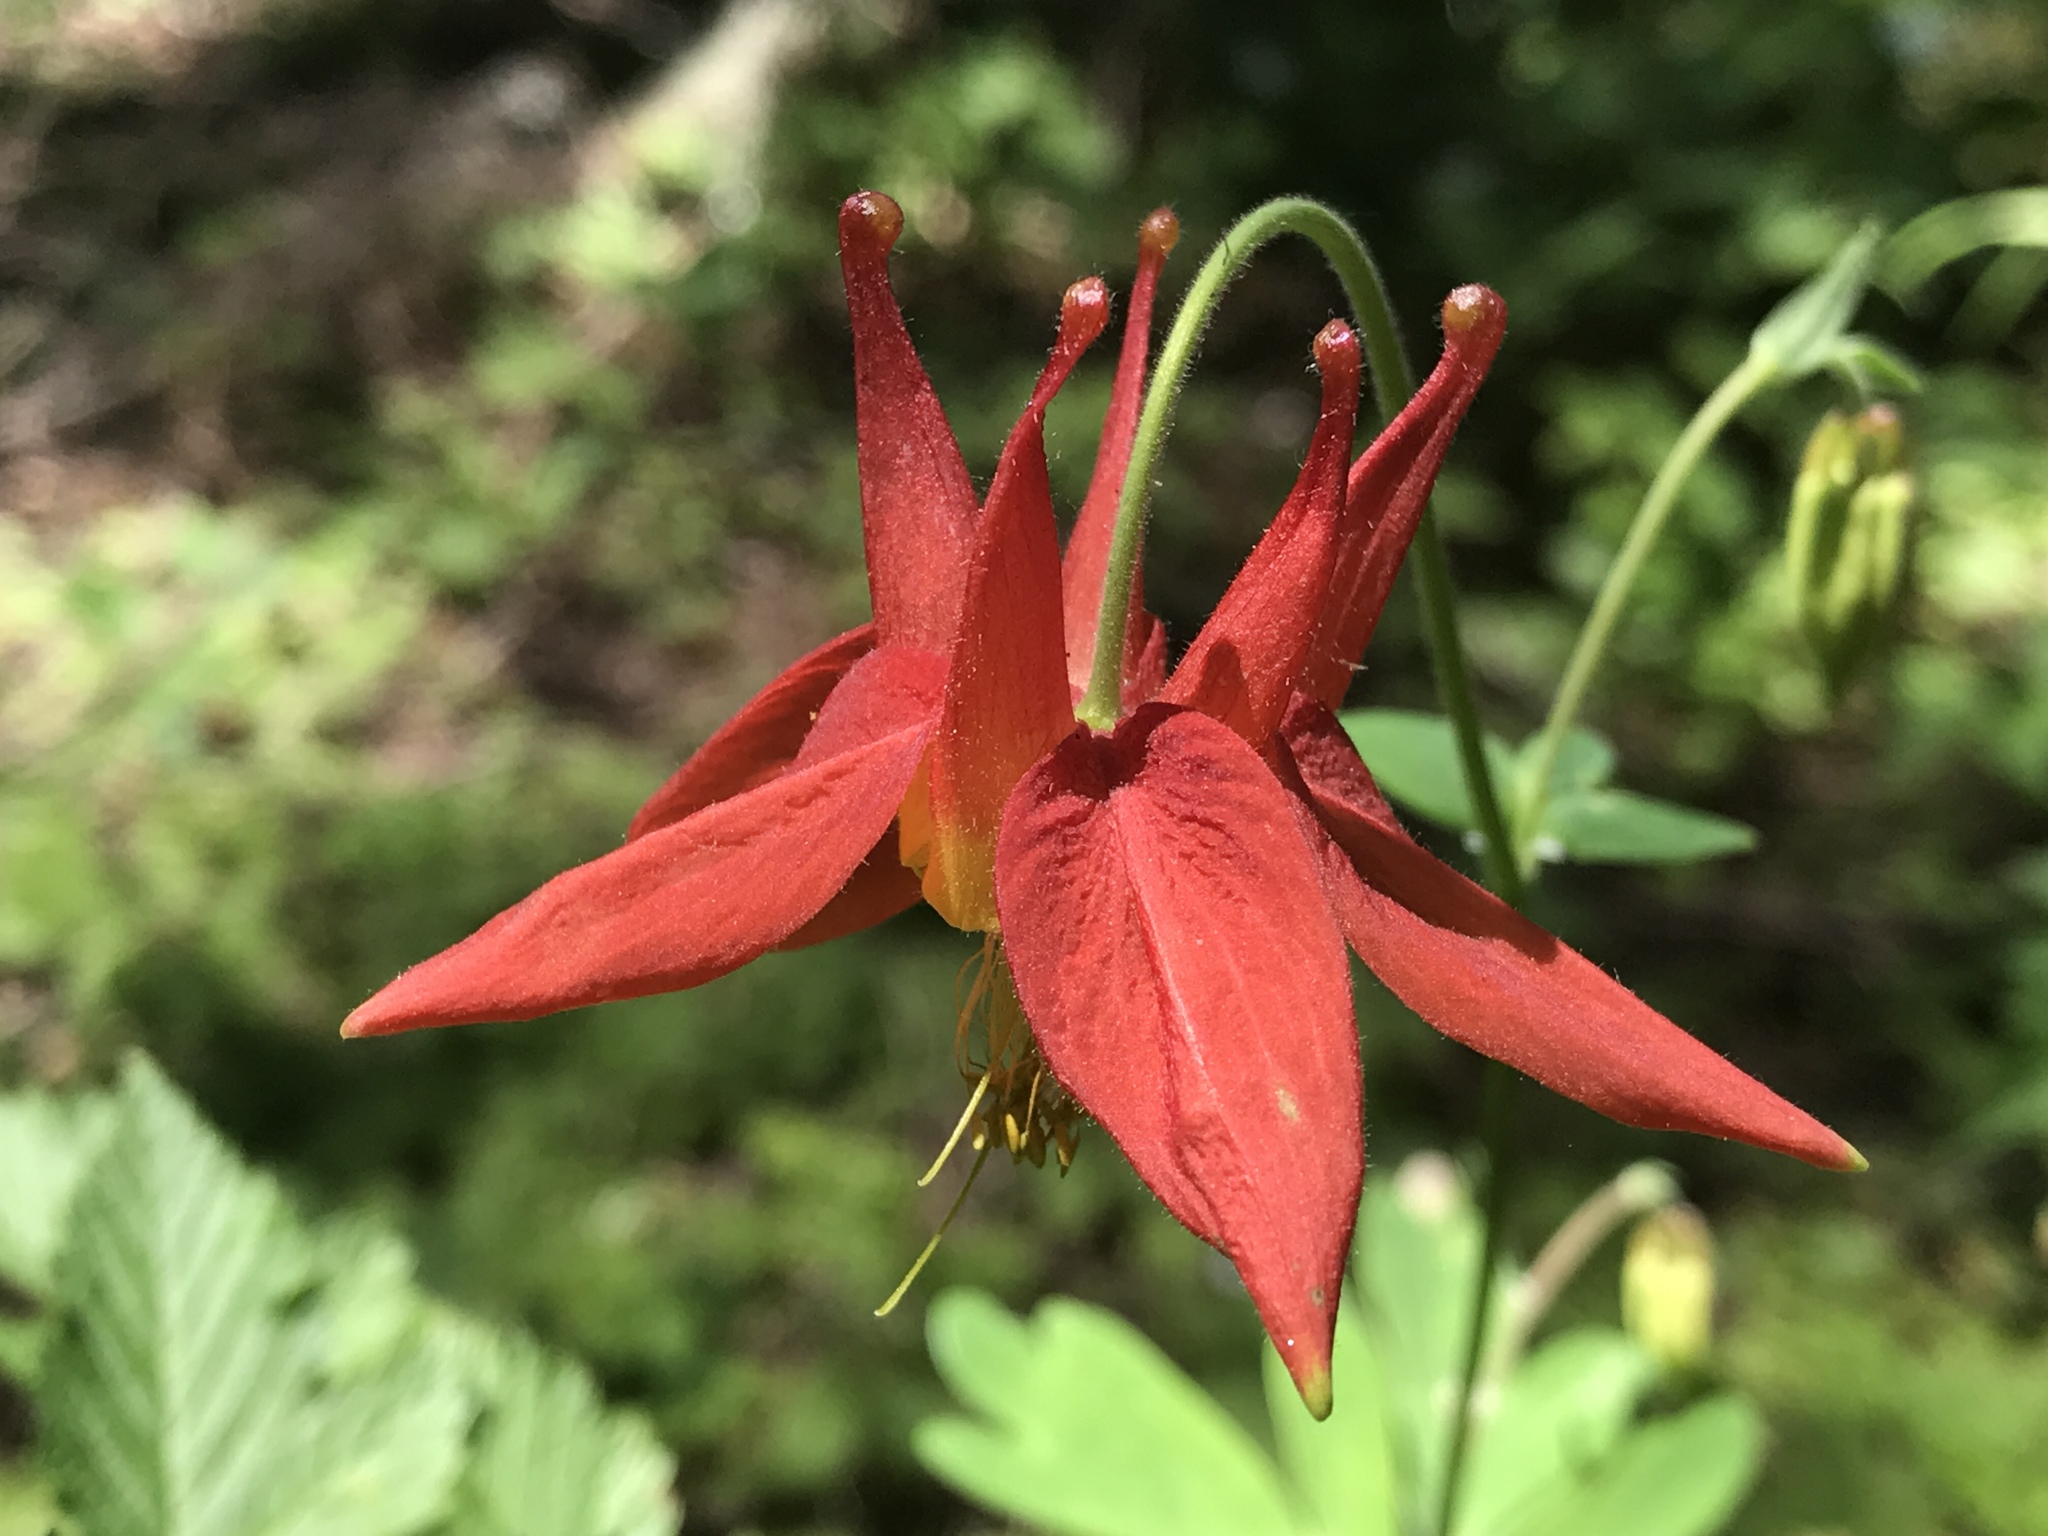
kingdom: Plantae
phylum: Tracheophyta
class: Magnoliopsida
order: Ranunculales
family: Ranunculaceae
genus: Aquilegia
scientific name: Aquilegia formosa
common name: Sitka columbine
